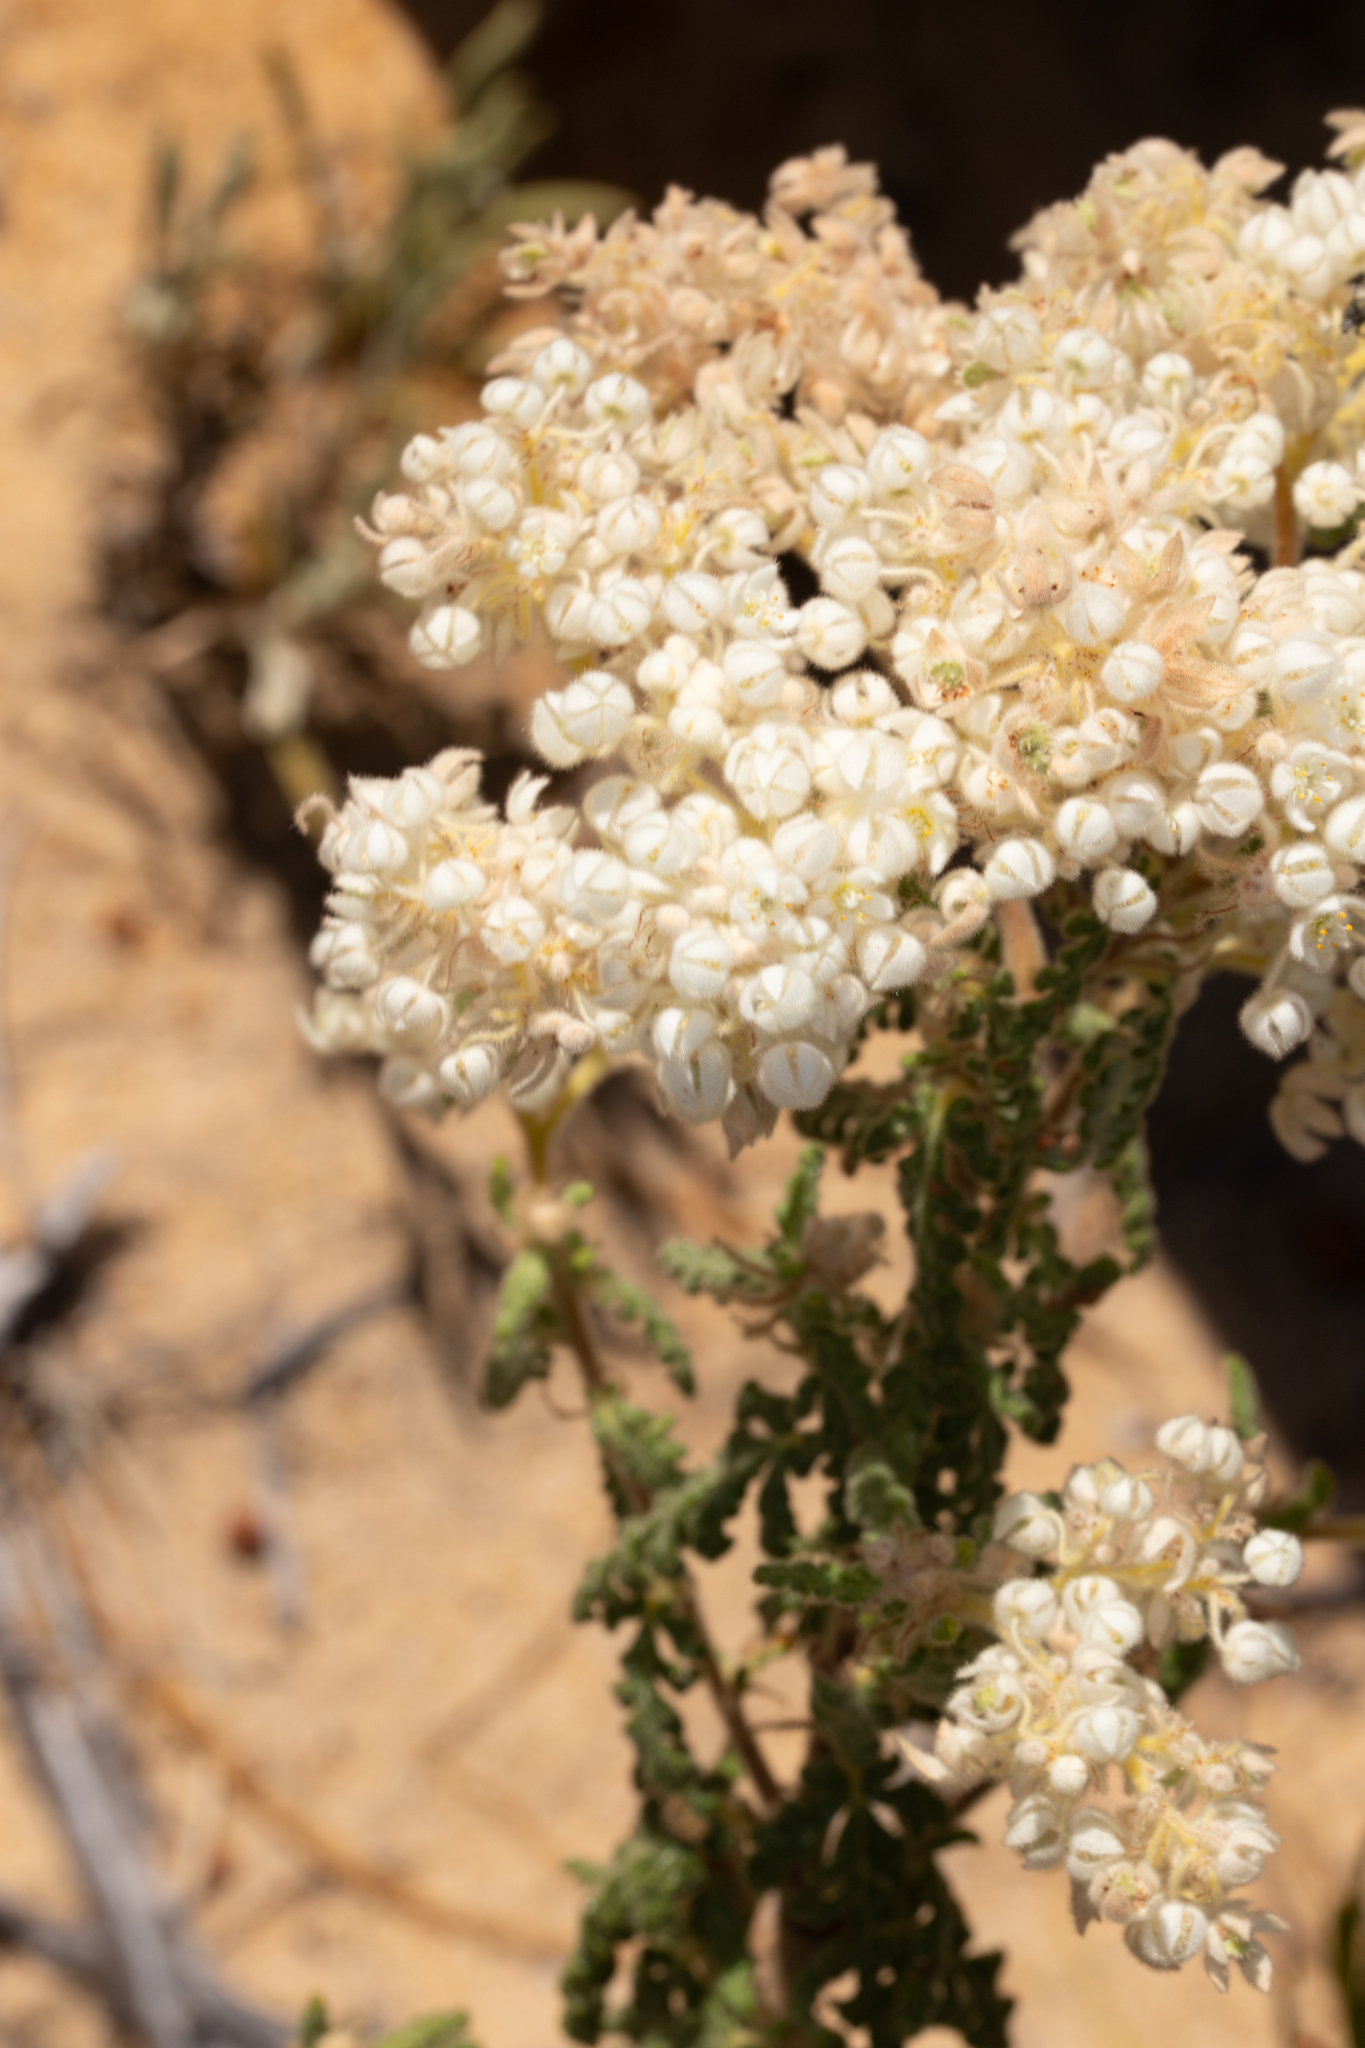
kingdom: Plantae
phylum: Tracheophyta
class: Magnoliopsida
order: Malvales
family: Malvaceae
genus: Commersonia
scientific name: Commersonia densiflora
